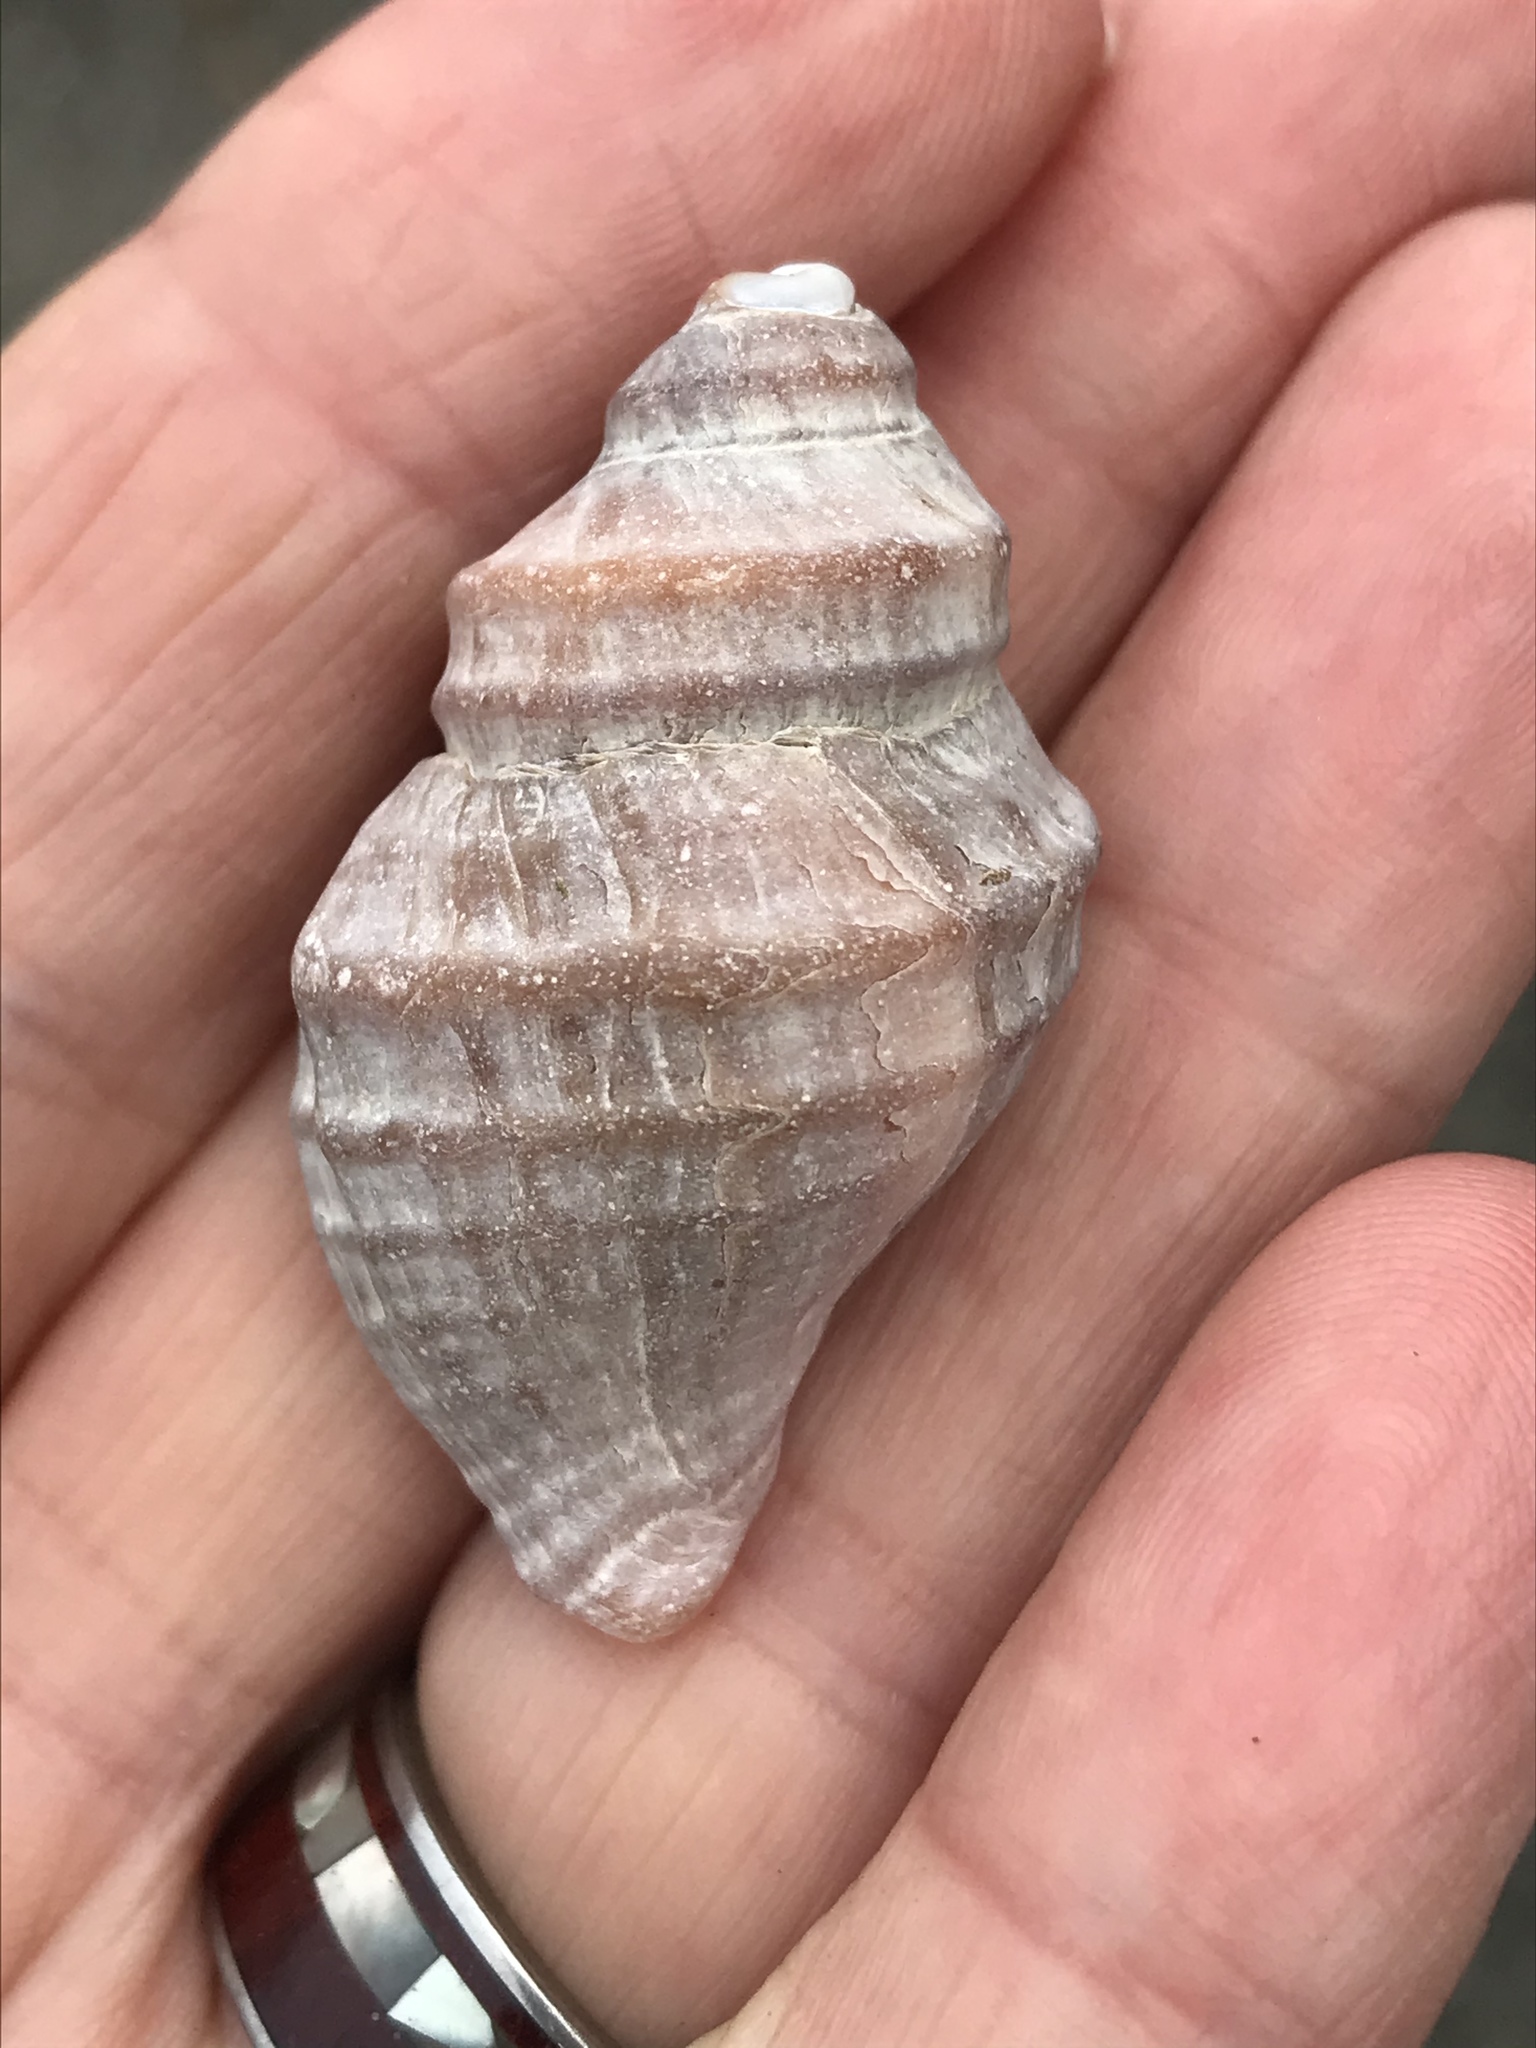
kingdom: Animalia
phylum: Mollusca
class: Gastropoda
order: Neogastropoda
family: Muricidae
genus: Nucella
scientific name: Nucella lamellosa
